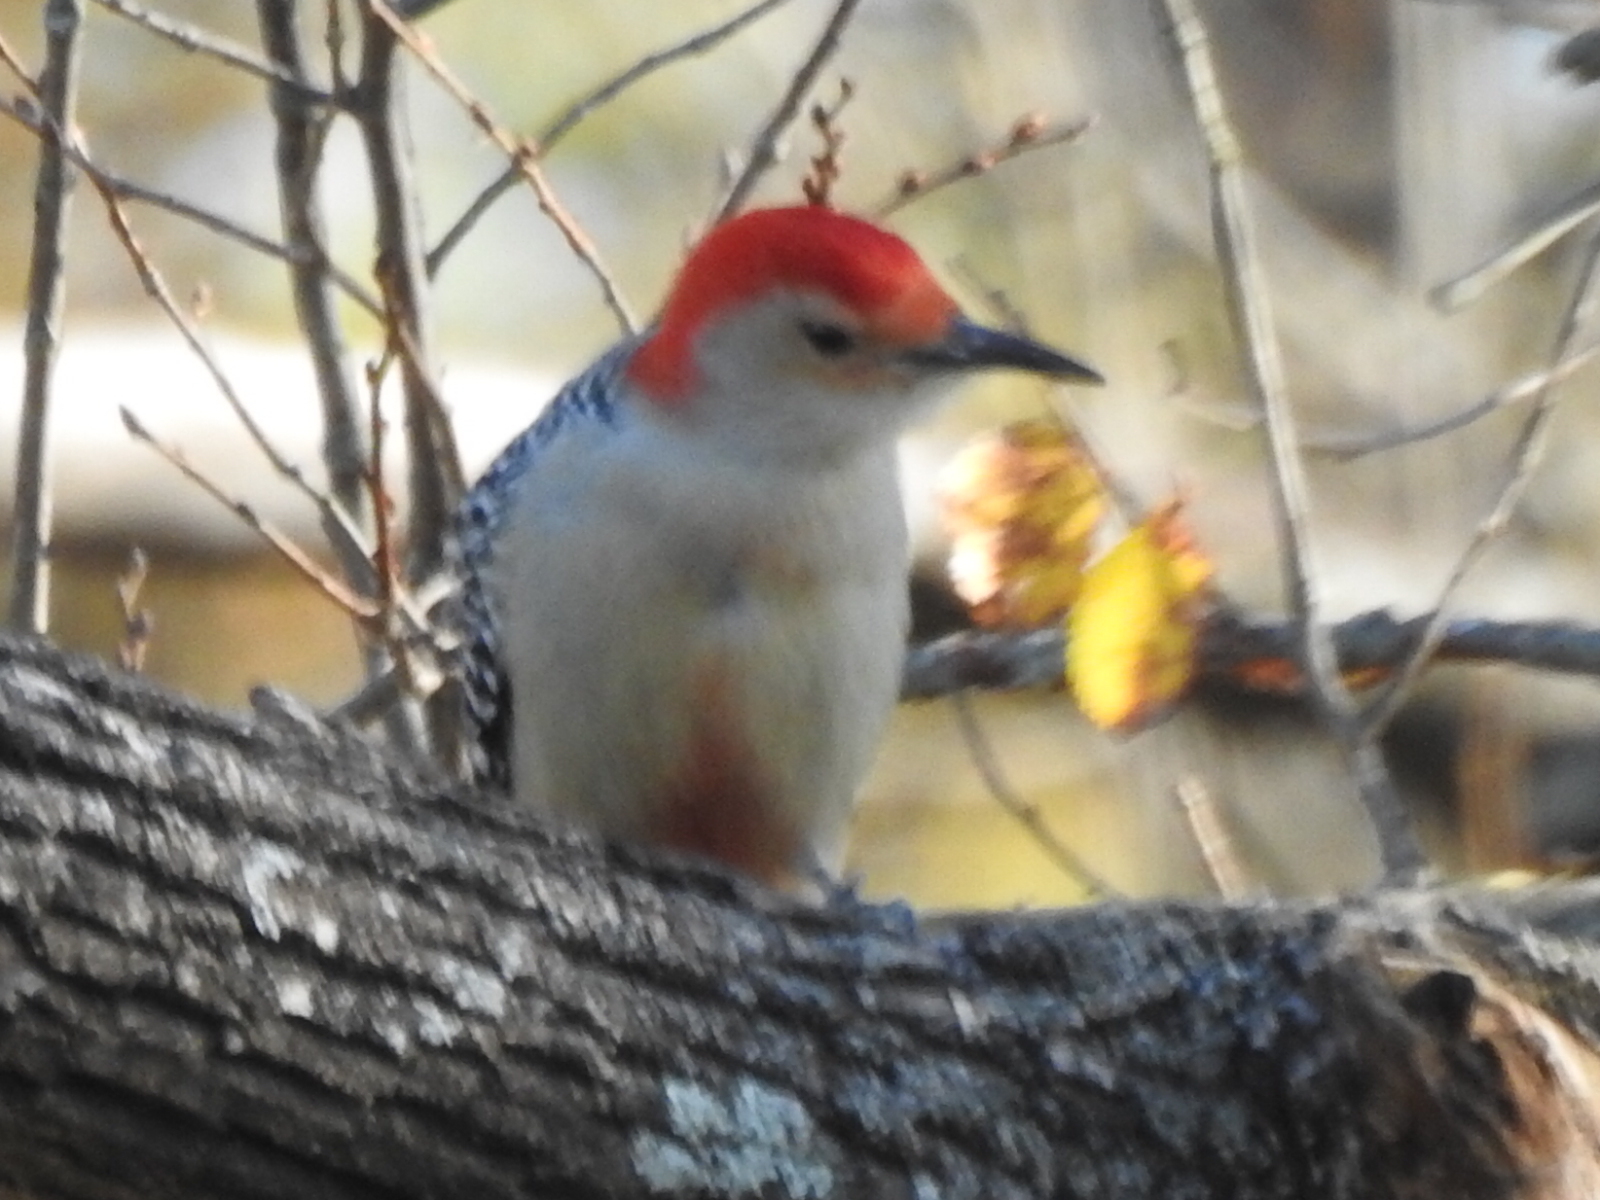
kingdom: Animalia
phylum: Chordata
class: Aves
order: Piciformes
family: Picidae
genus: Melanerpes
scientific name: Melanerpes carolinus
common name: Red-bellied woodpecker
